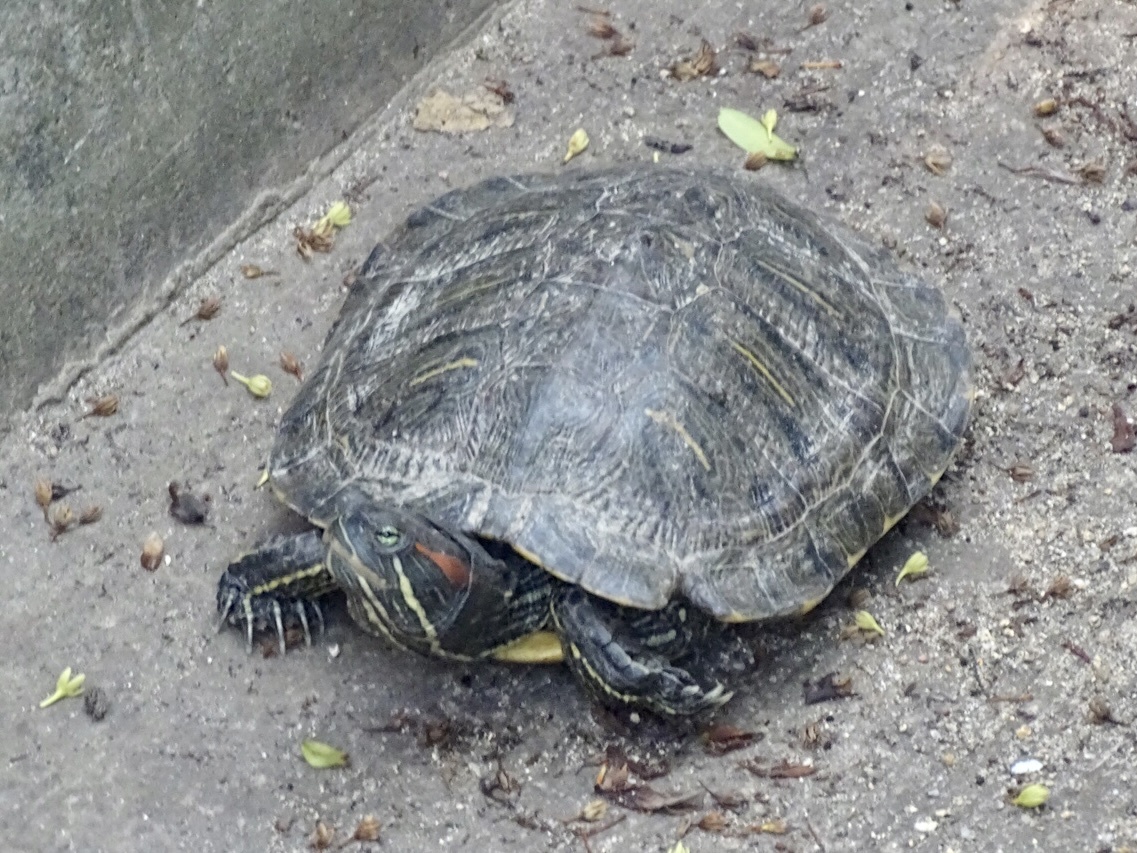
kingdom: Animalia
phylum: Chordata
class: Testudines
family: Emydidae
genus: Trachemys
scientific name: Trachemys scripta
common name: Slider
